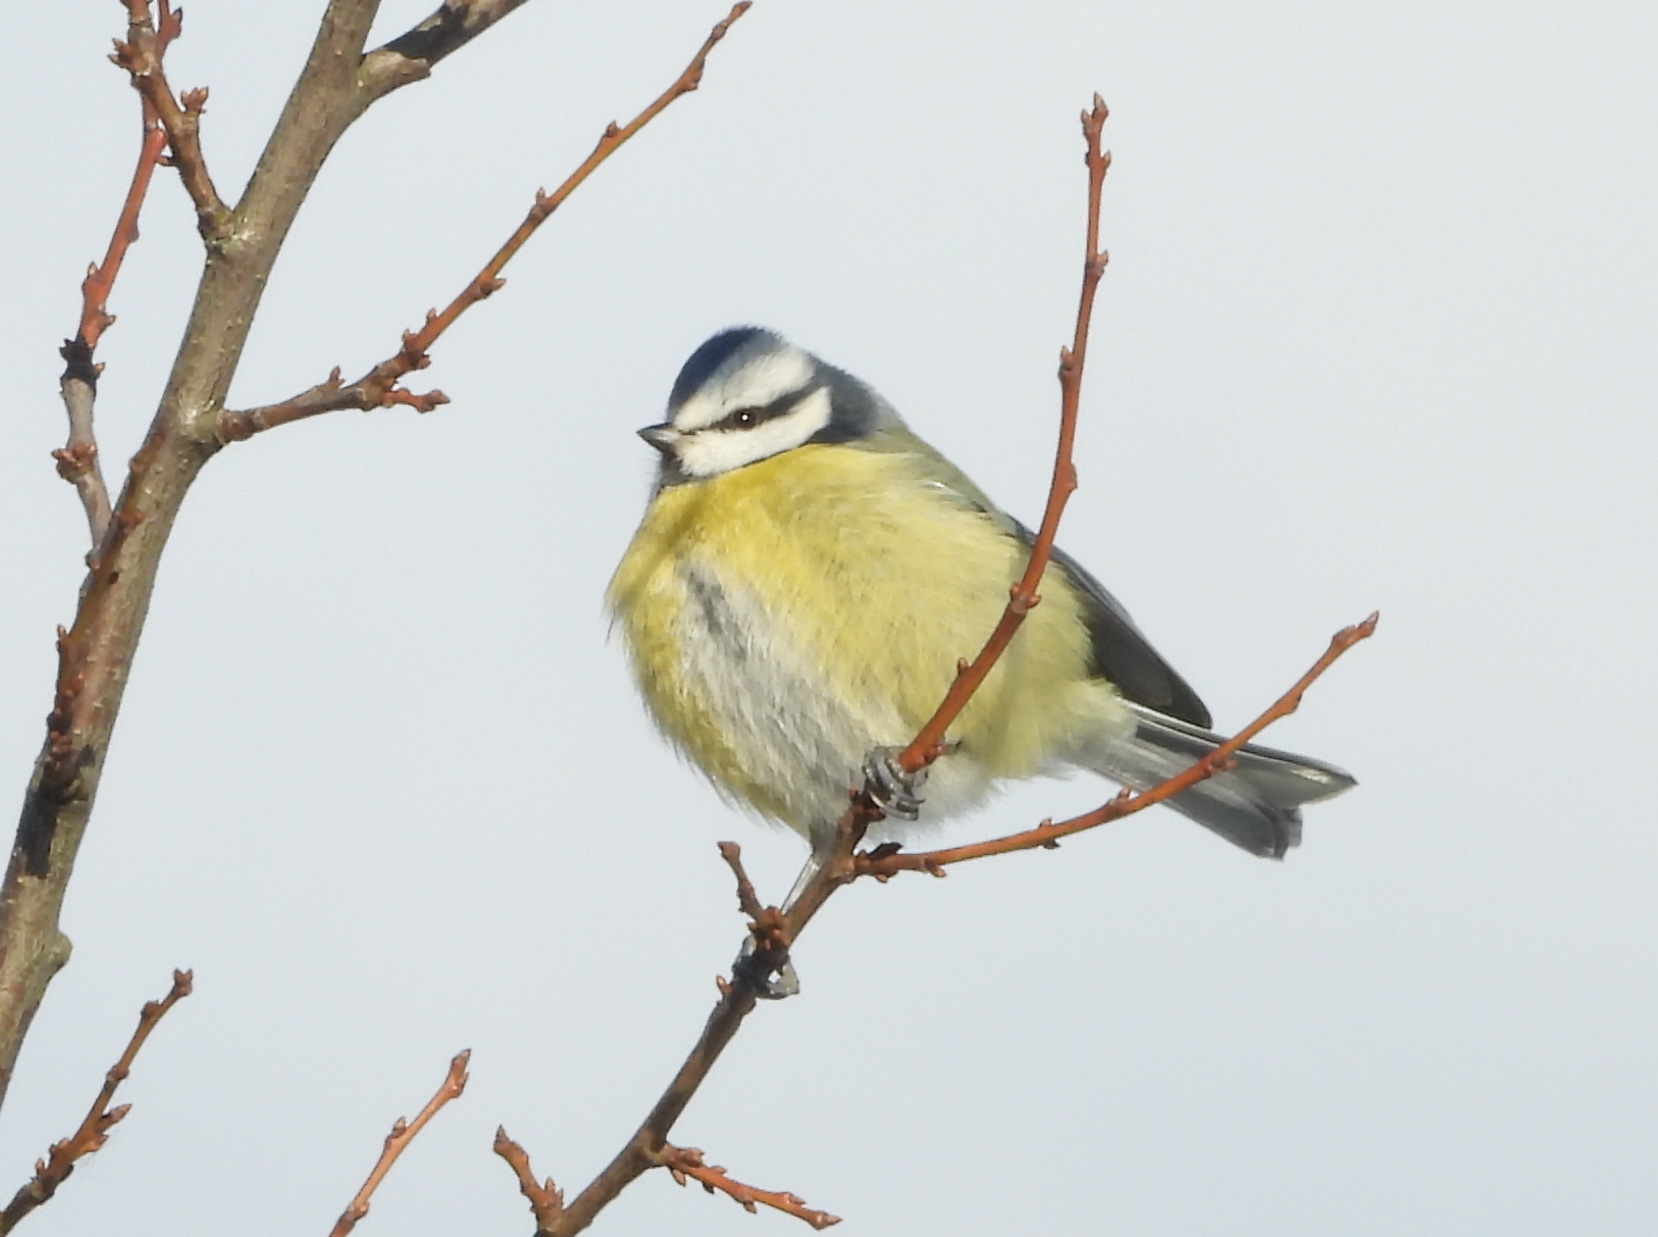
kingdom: Animalia
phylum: Chordata
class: Aves
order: Passeriformes
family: Paridae
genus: Cyanistes
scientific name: Cyanistes caeruleus
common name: Eurasian blue tit
